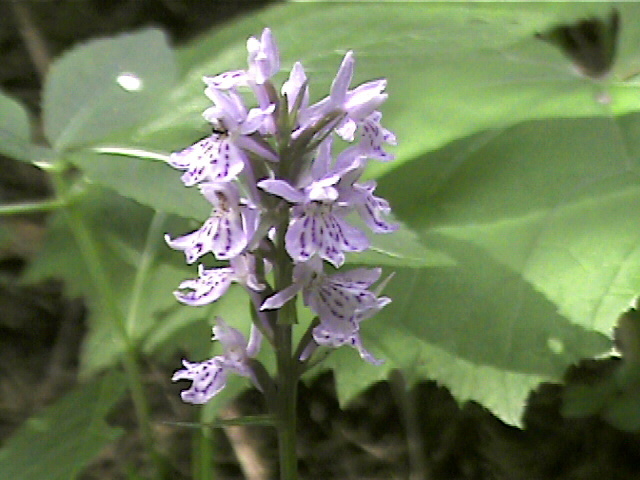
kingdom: Plantae
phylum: Tracheophyta
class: Liliopsida
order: Asparagales
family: Orchidaceae
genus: Dactylorhiza
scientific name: Dactylorhiza maculata
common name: Heath spotted-orchid
